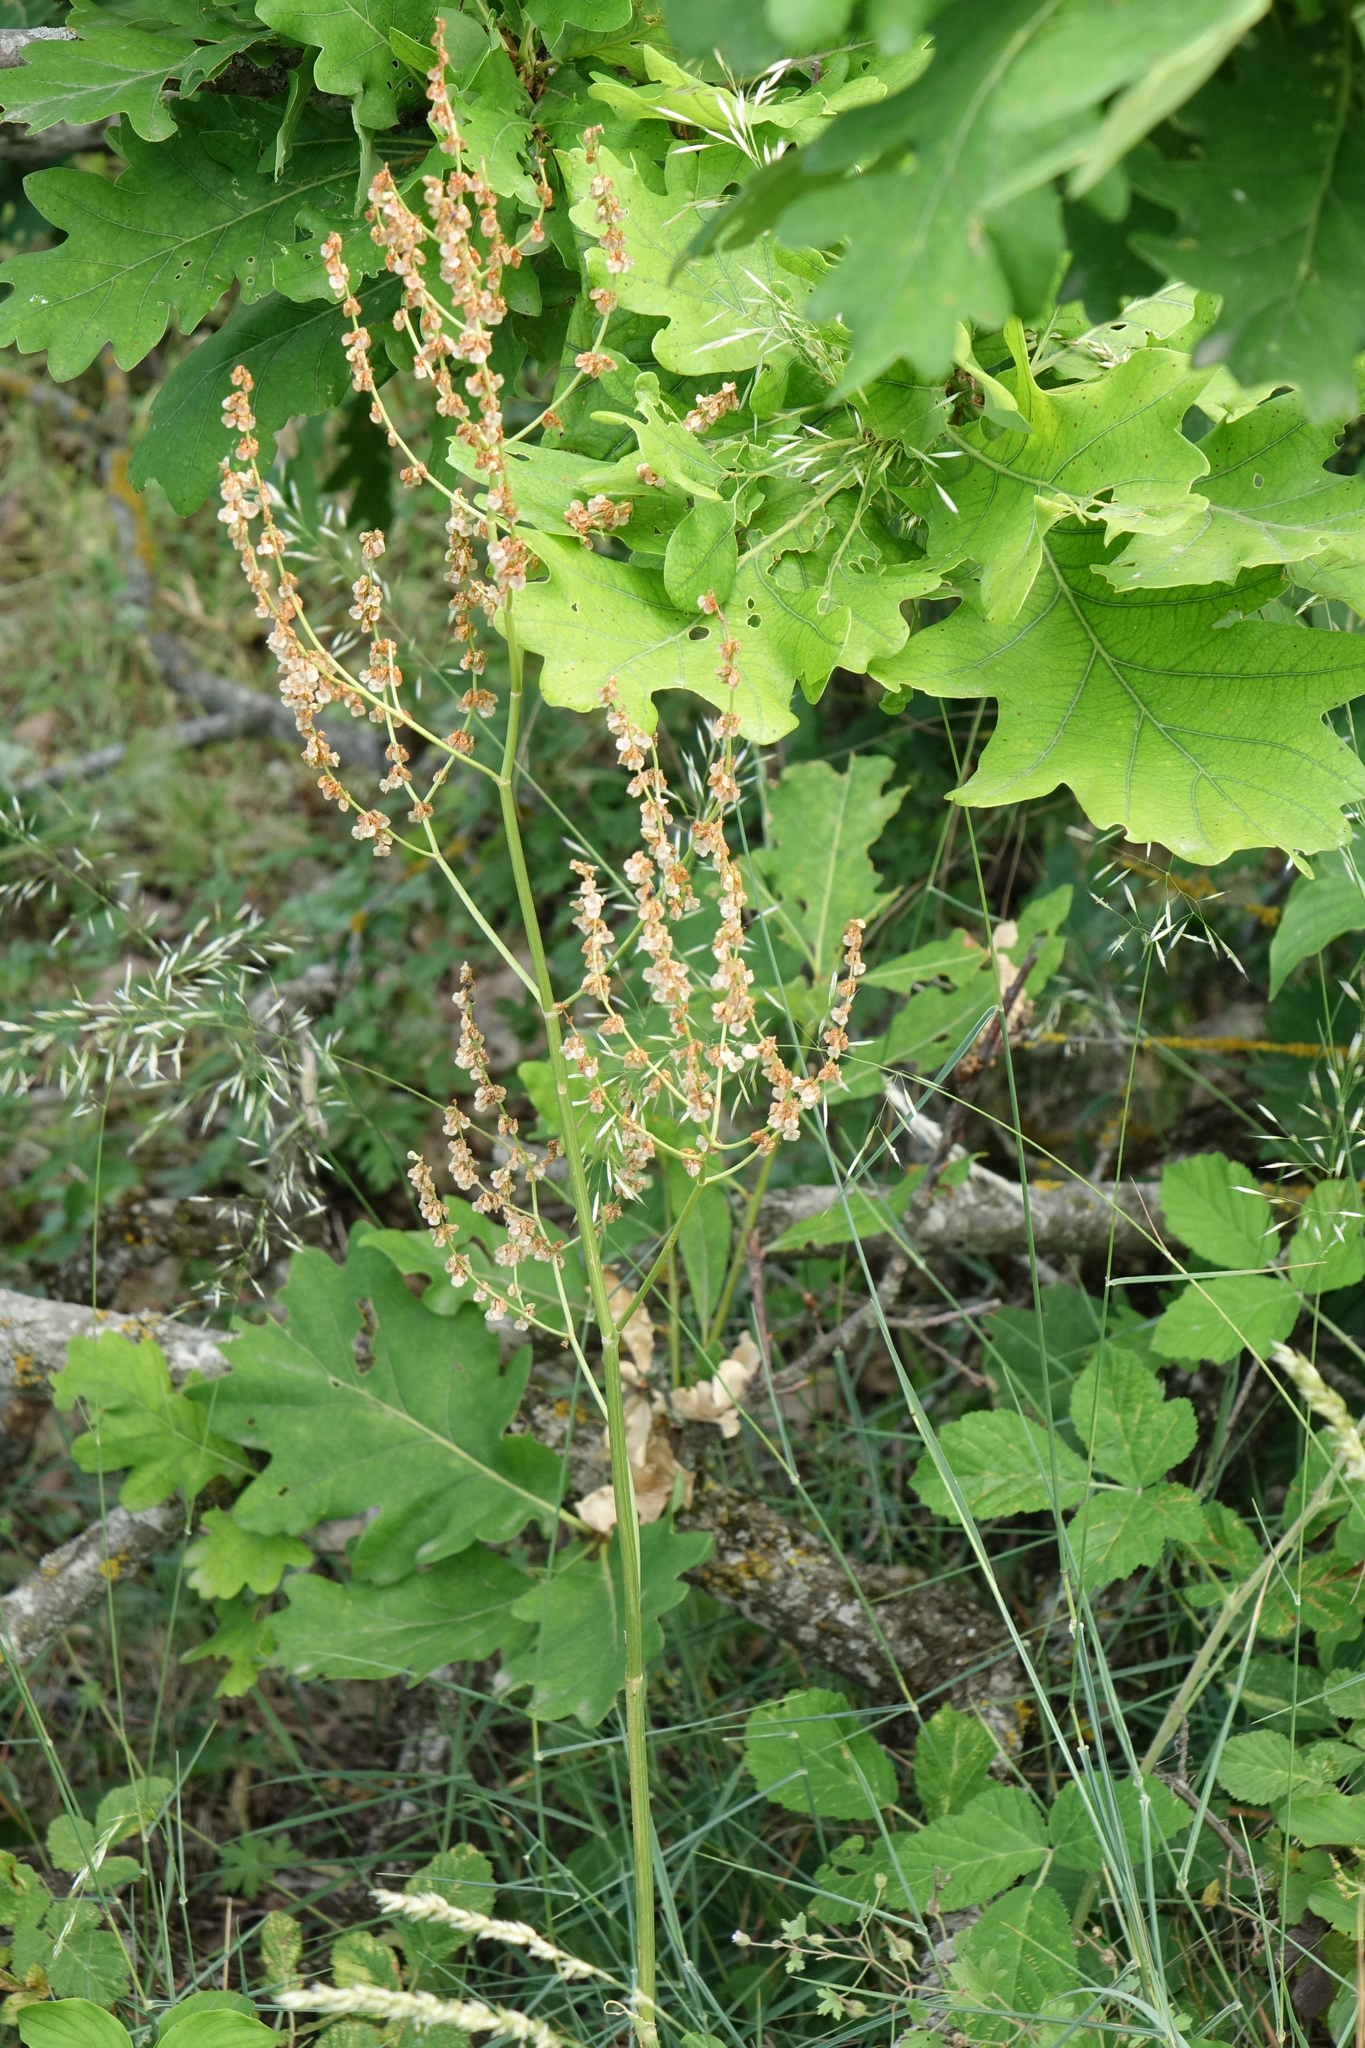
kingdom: Plantae
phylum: Tracheophyta
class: Magnoliopsida
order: Caryophyllales
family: Polygonaceae
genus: Rumex
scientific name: Rumex acetosa
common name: Garden sorrel
